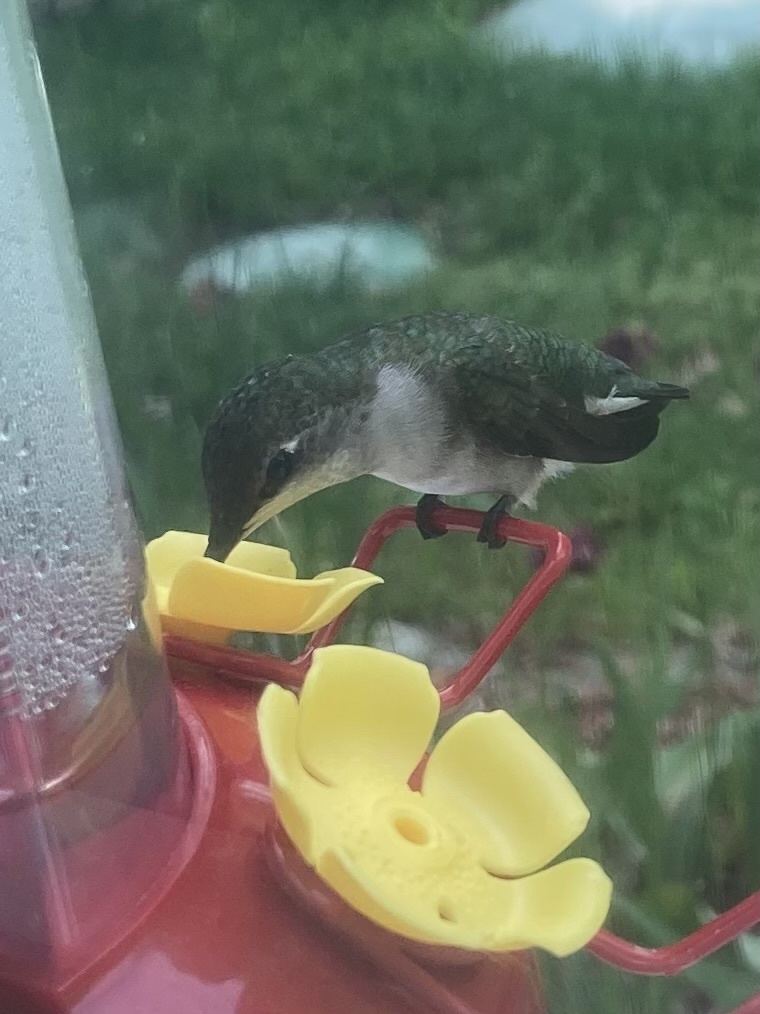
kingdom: Animalia
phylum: Chordata
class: Aves
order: Apodiformes
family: Trochilidae
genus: Archilochus
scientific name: Archilochus colubris
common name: Ruby-throated hummingbird
